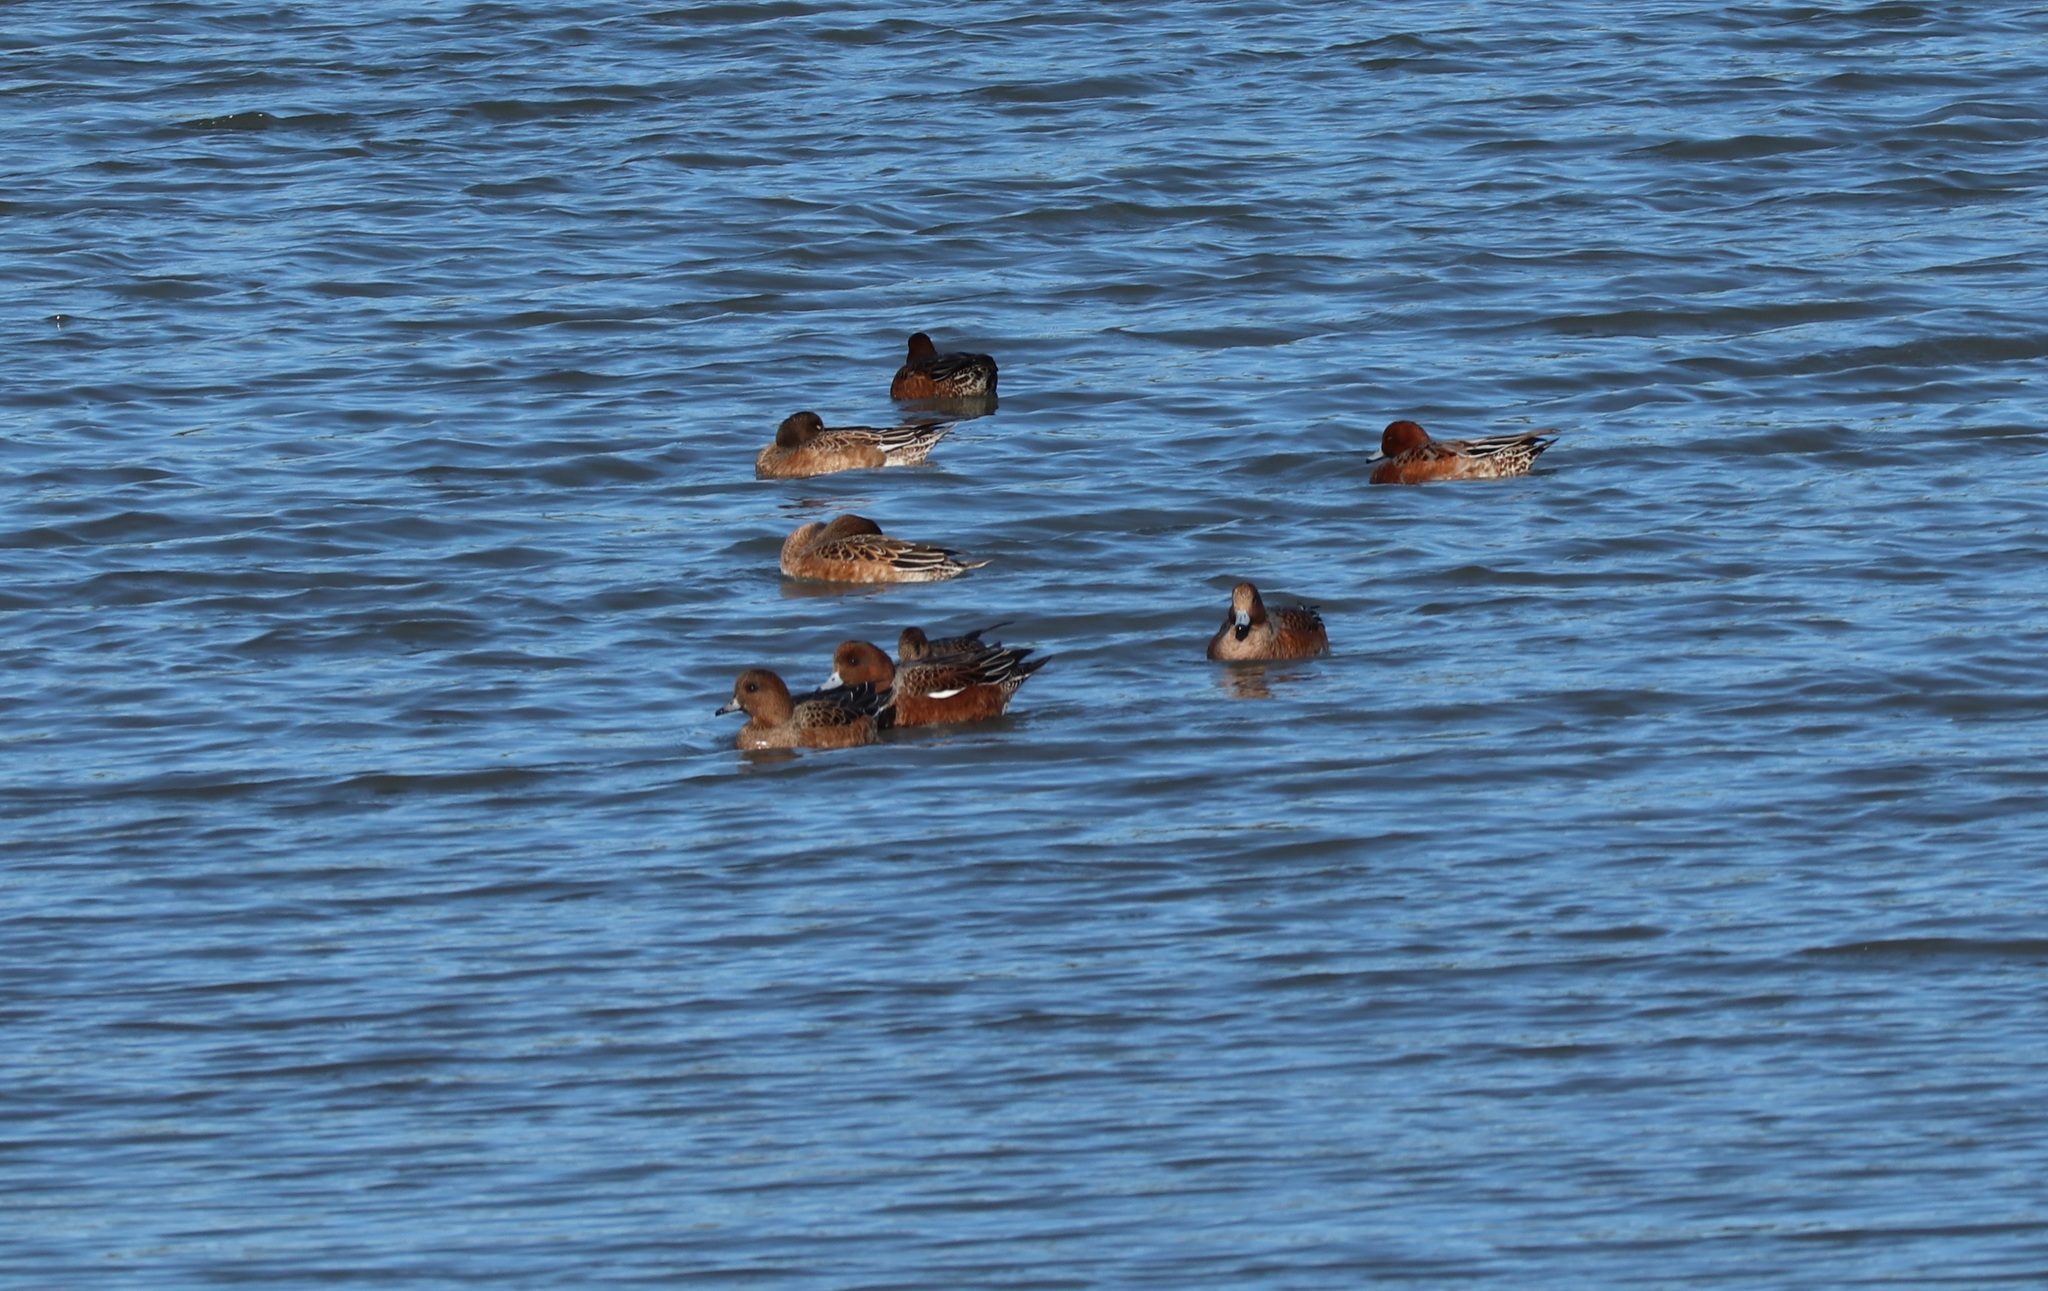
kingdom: Animalia
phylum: Chordata
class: Aves
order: Anseriformes
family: Anatidae
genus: Mareca
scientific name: Mareca penelope
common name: Eurasian wigeon
